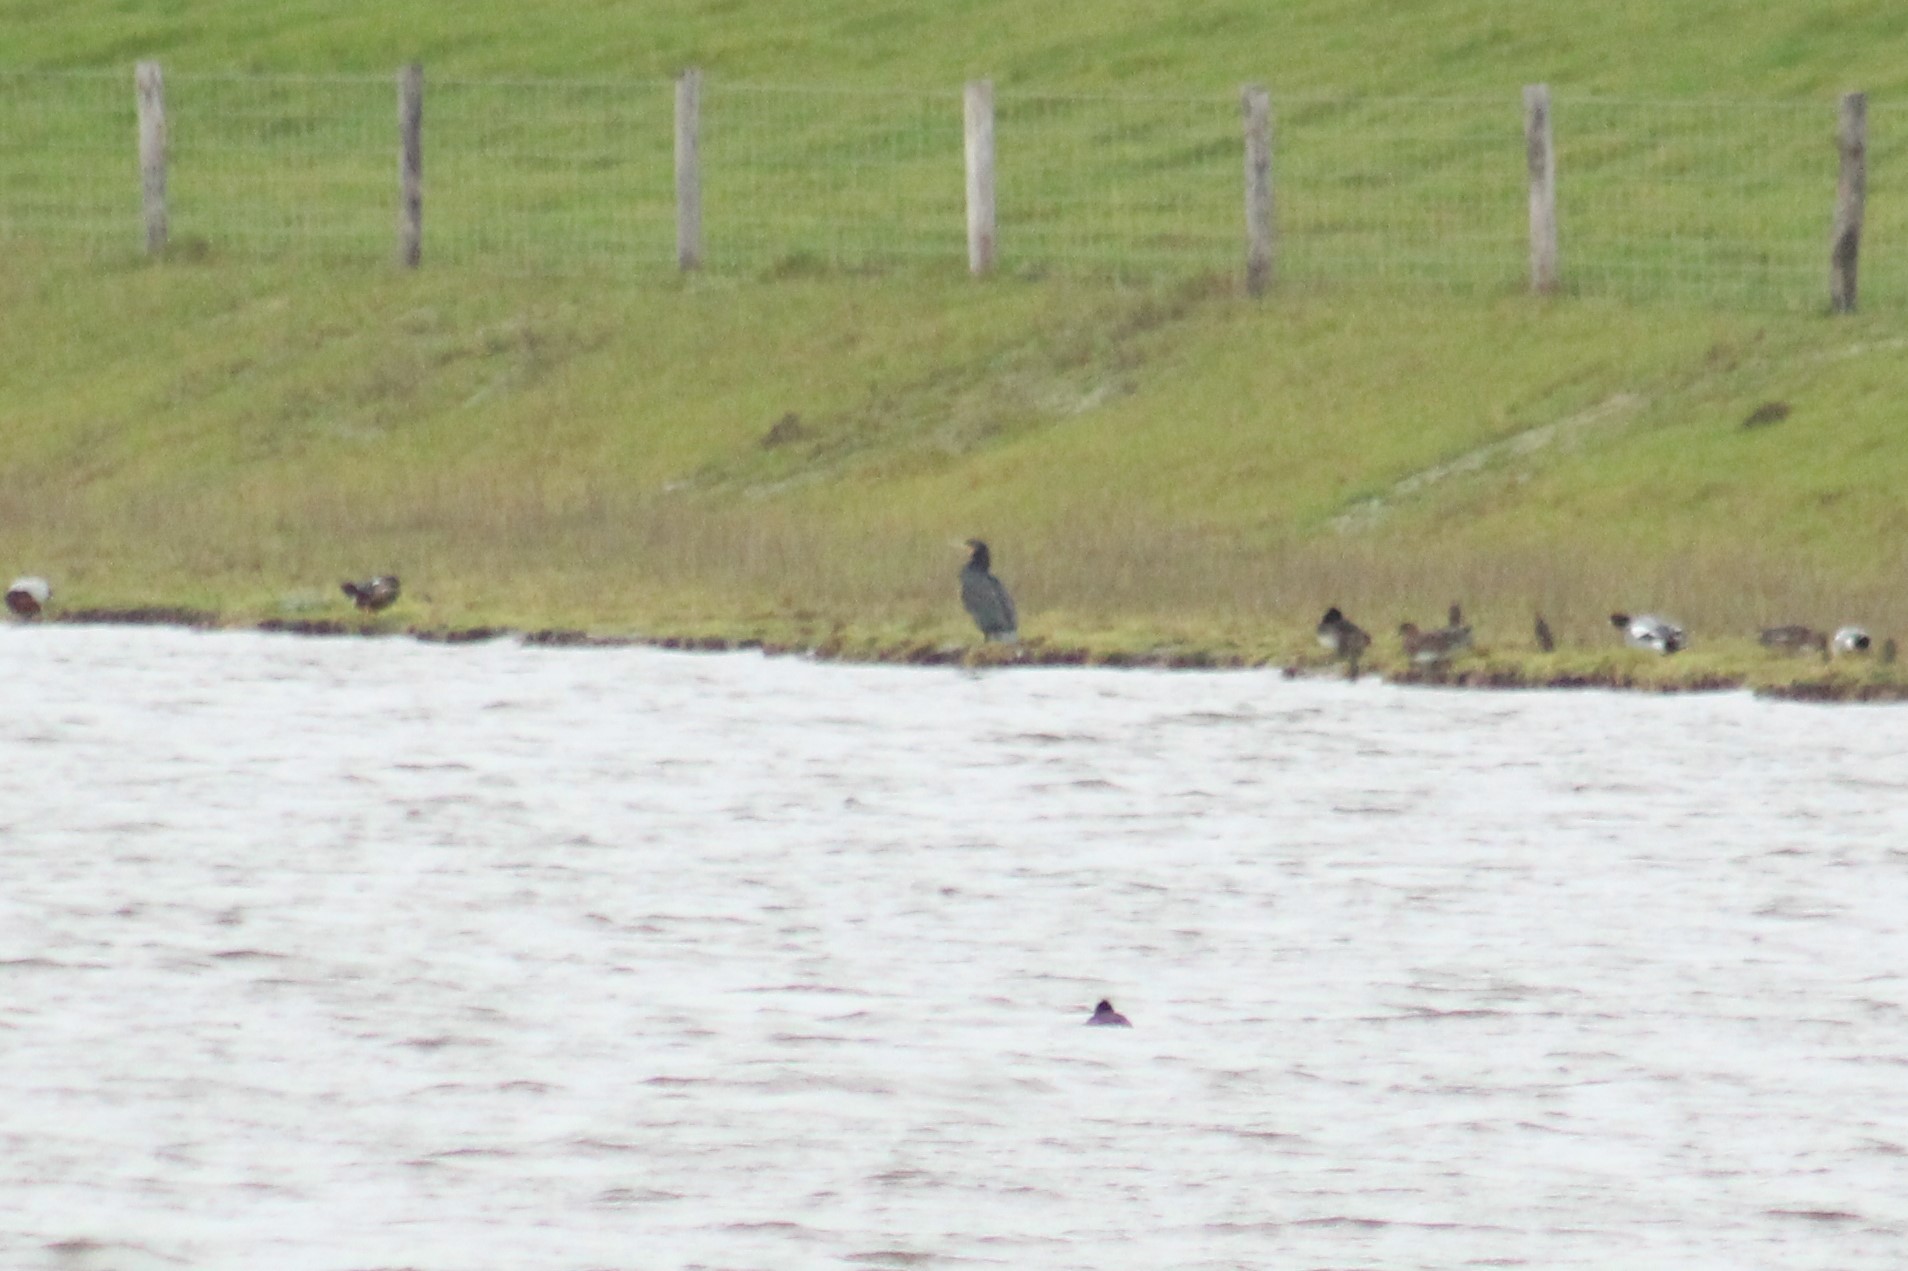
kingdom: Animalia
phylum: Chordata
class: Aves
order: Suliformes
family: Phalacrocoracidae
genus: Phalacrocorax
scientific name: Phalacrocorax carbo
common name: Great cormorant
